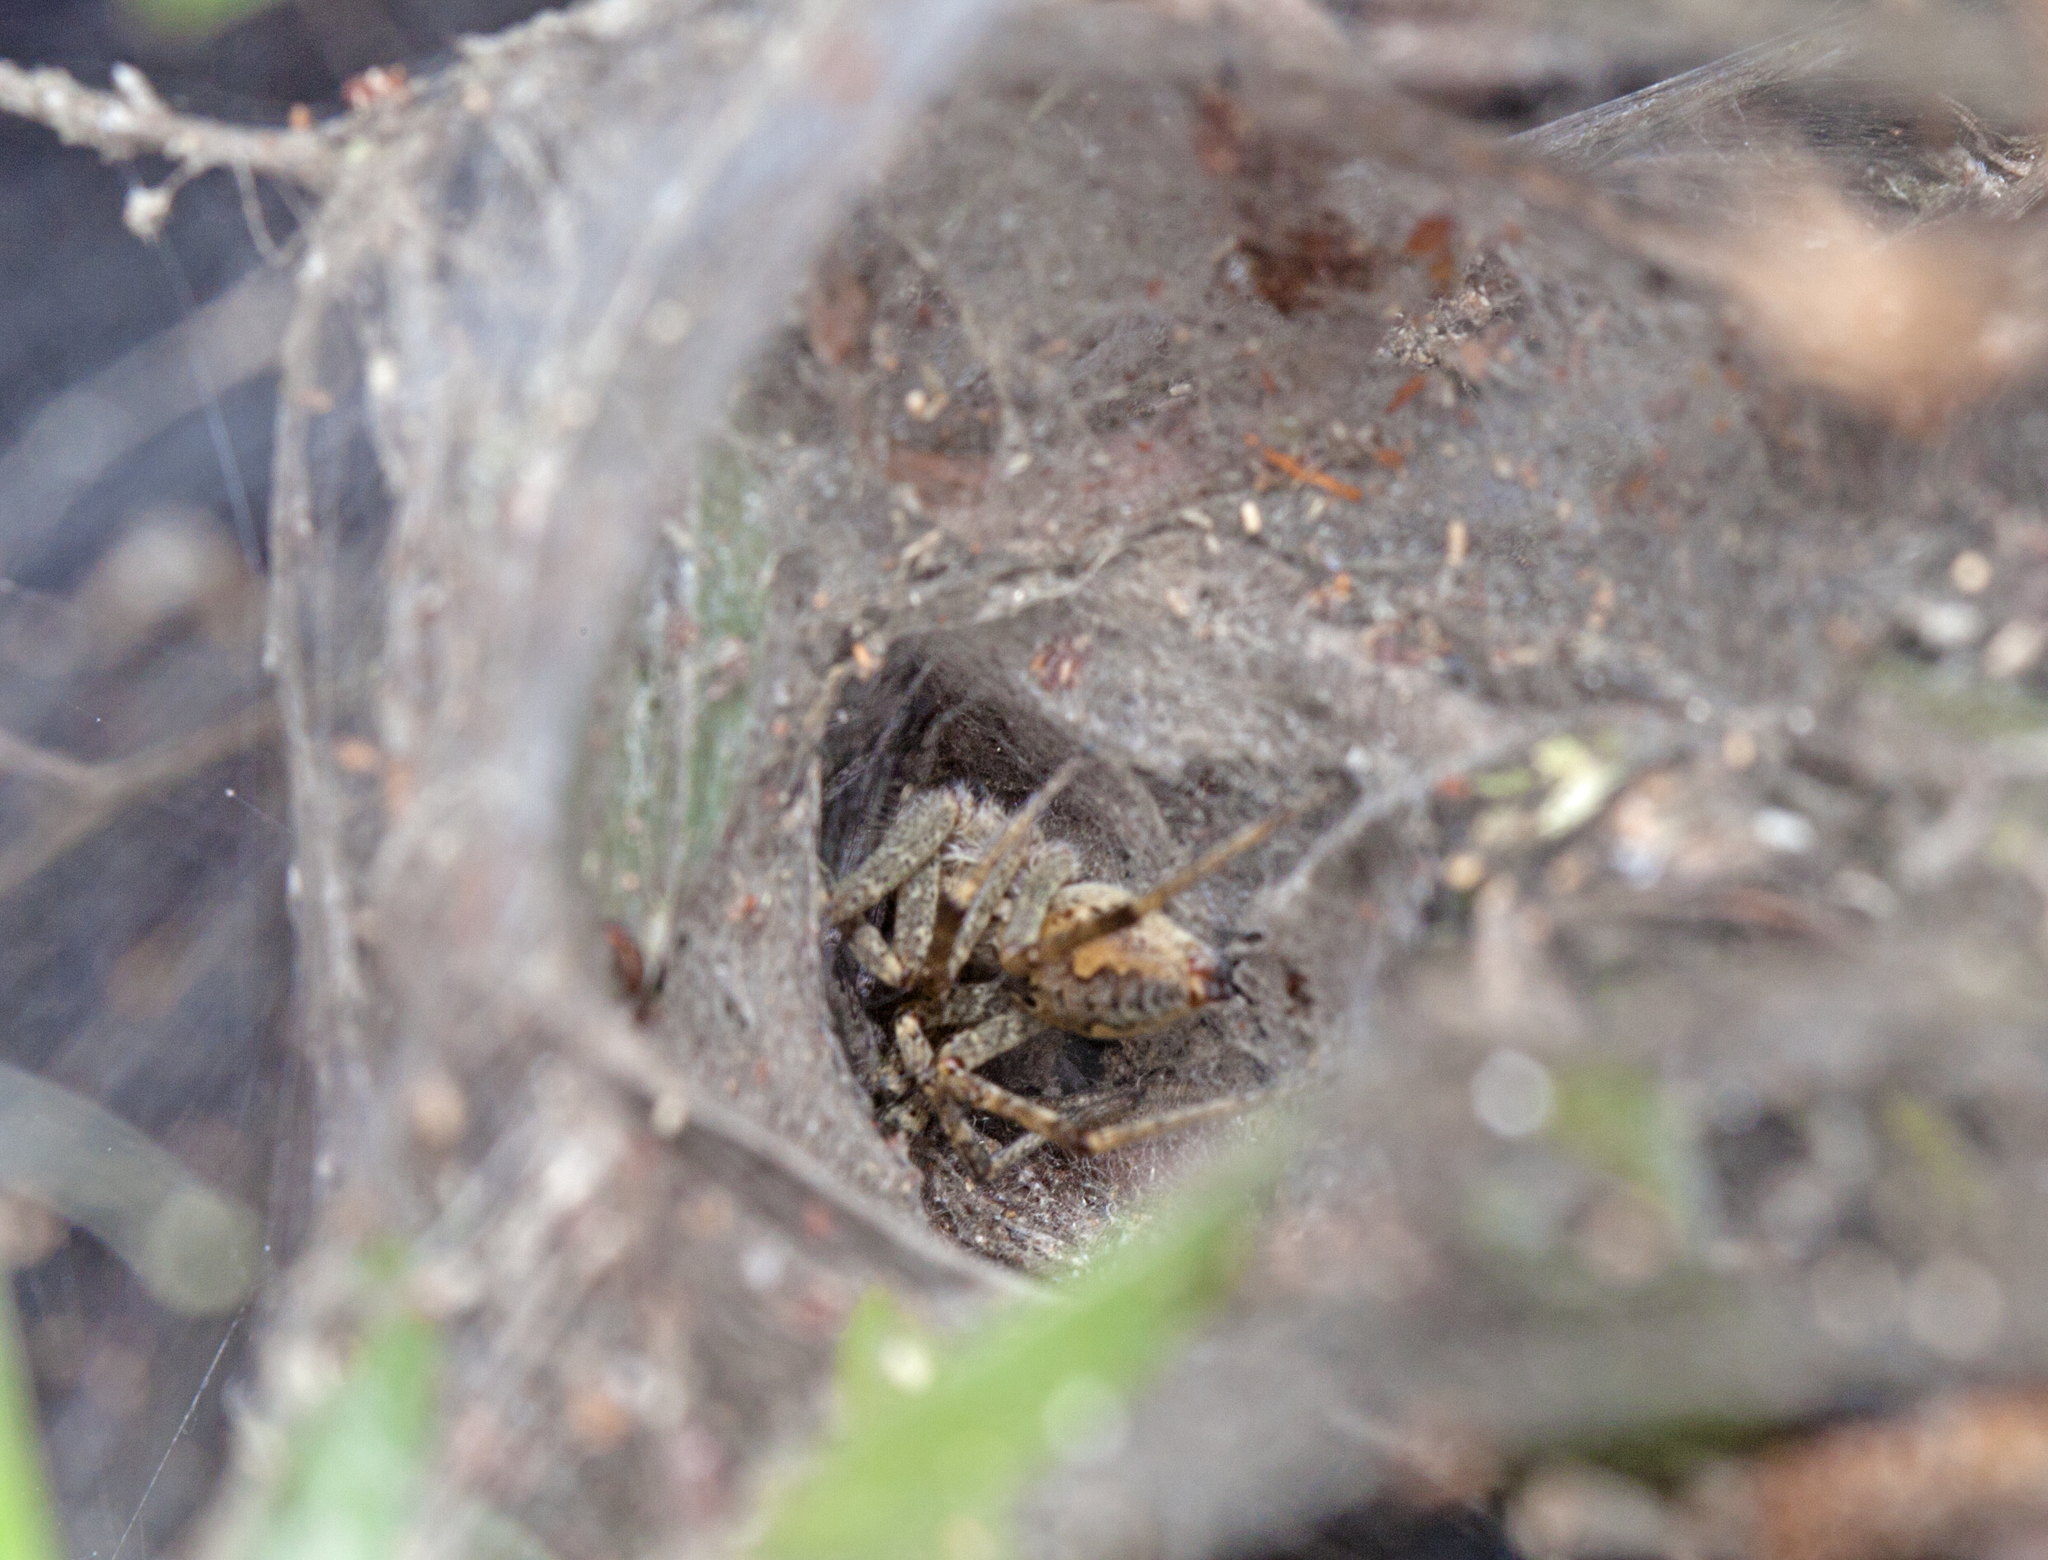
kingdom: Animalia
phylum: Arthropoda
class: Arachnida
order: Araneae
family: Pisauridae
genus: Dendrolycosa
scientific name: Dendrolycosa icadia
